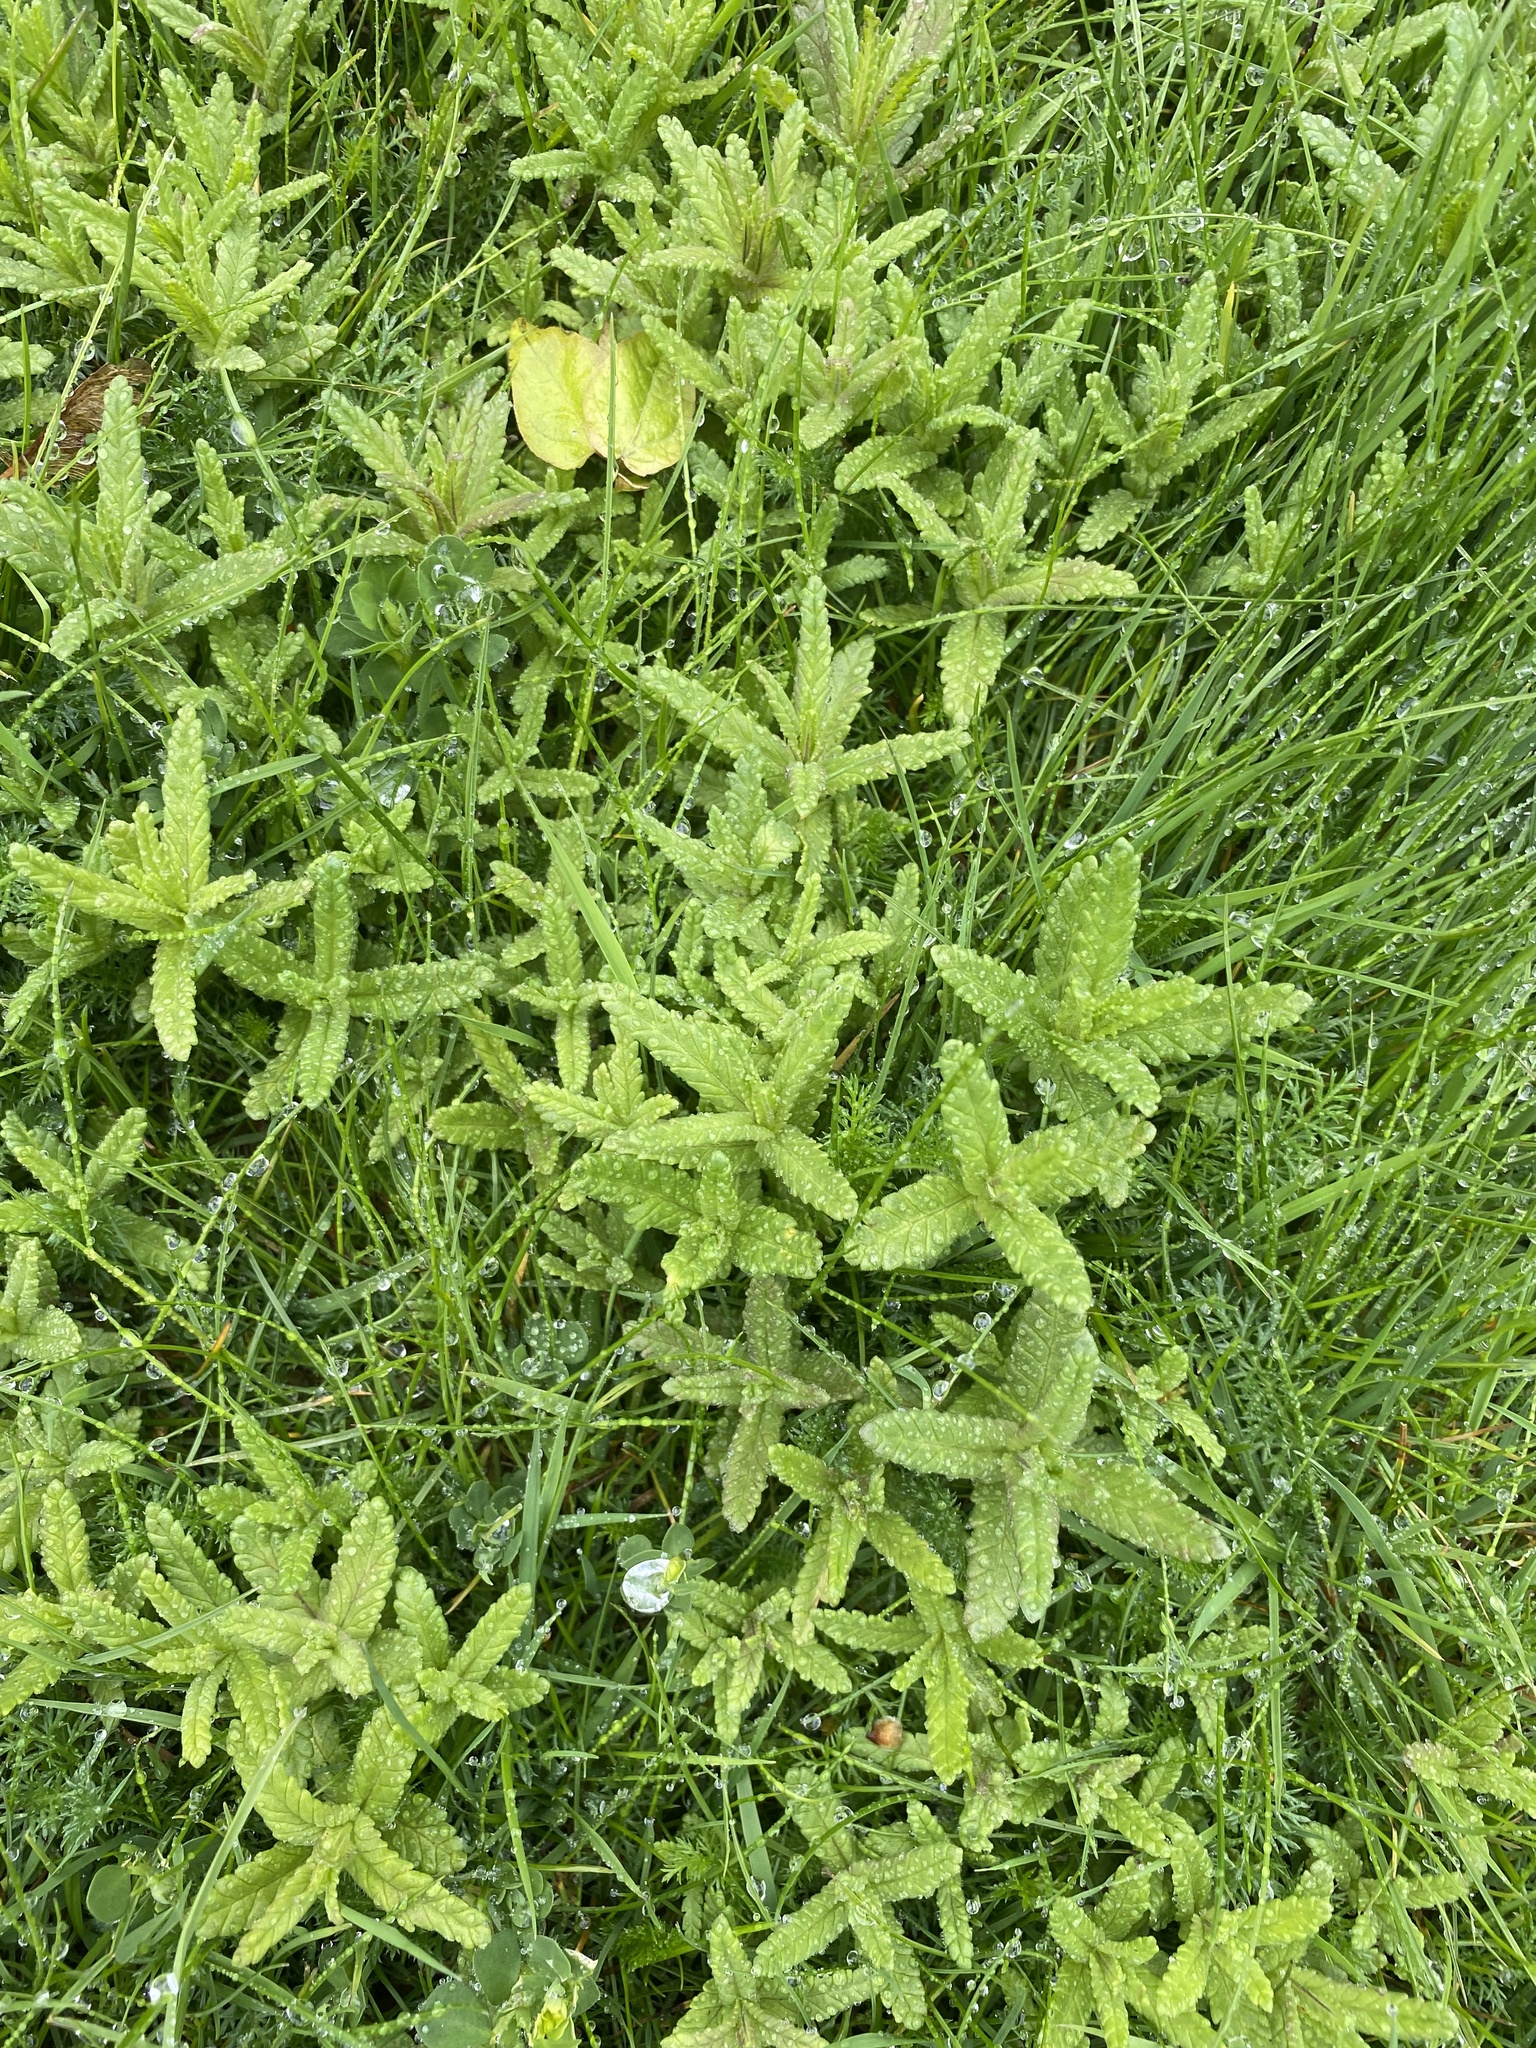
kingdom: Plantae
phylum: Tracheophyta
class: Magnoliopsida
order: Lamiales
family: Orobanchaceae
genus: Rhinanthus
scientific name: Rhinanthus minor
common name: Yellow-rattle
